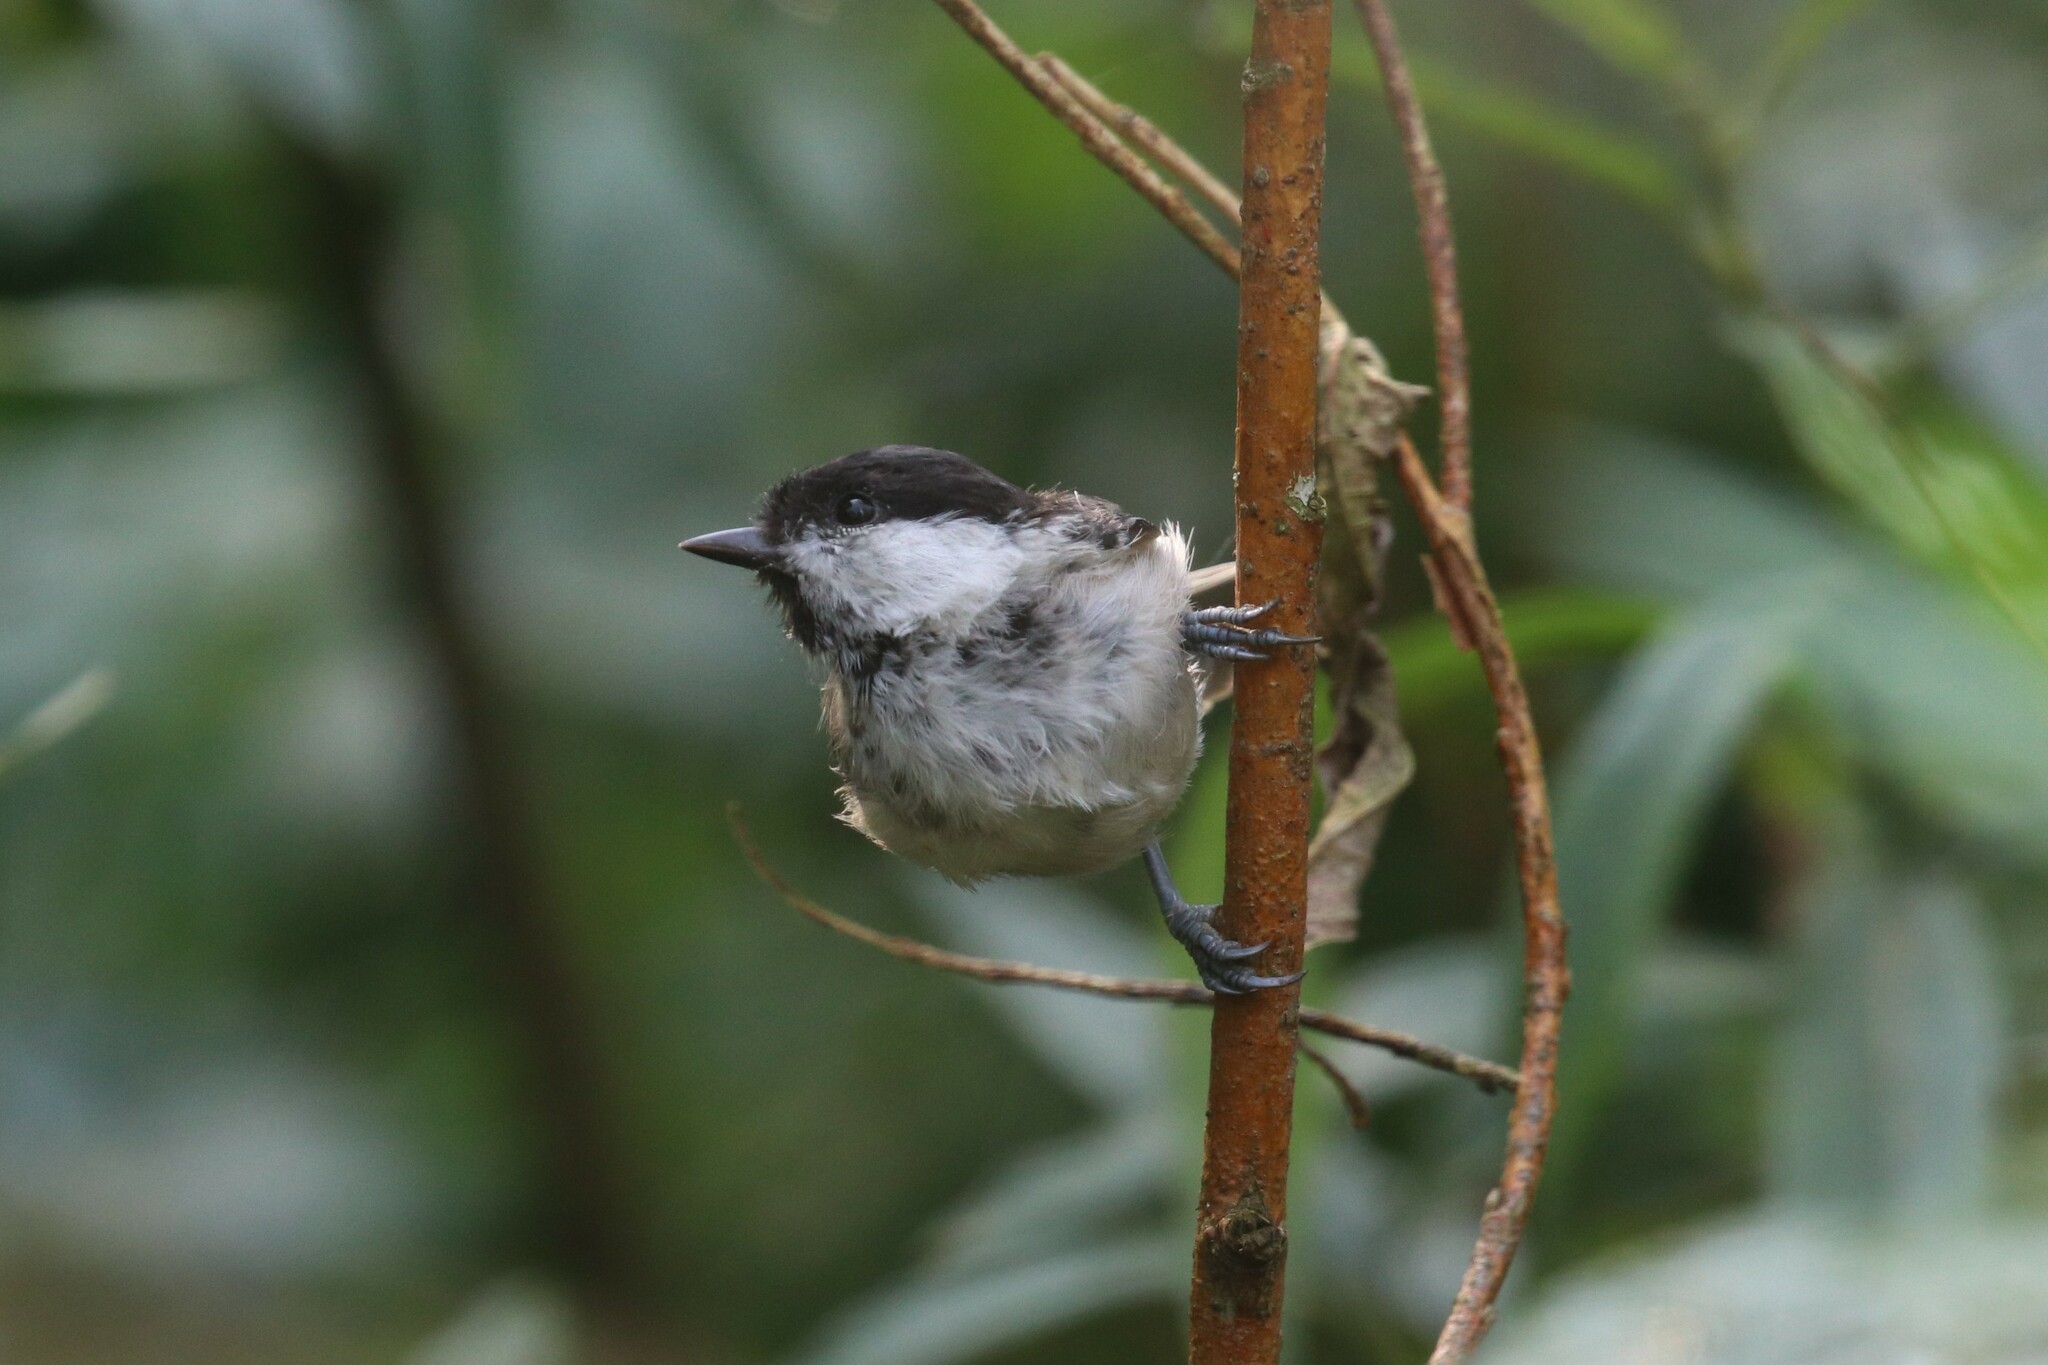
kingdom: Animalia
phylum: Chordata
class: Aves
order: Passeriformes
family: Paridae
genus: Poecile
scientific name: Poecile montanus
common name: Willow tit
